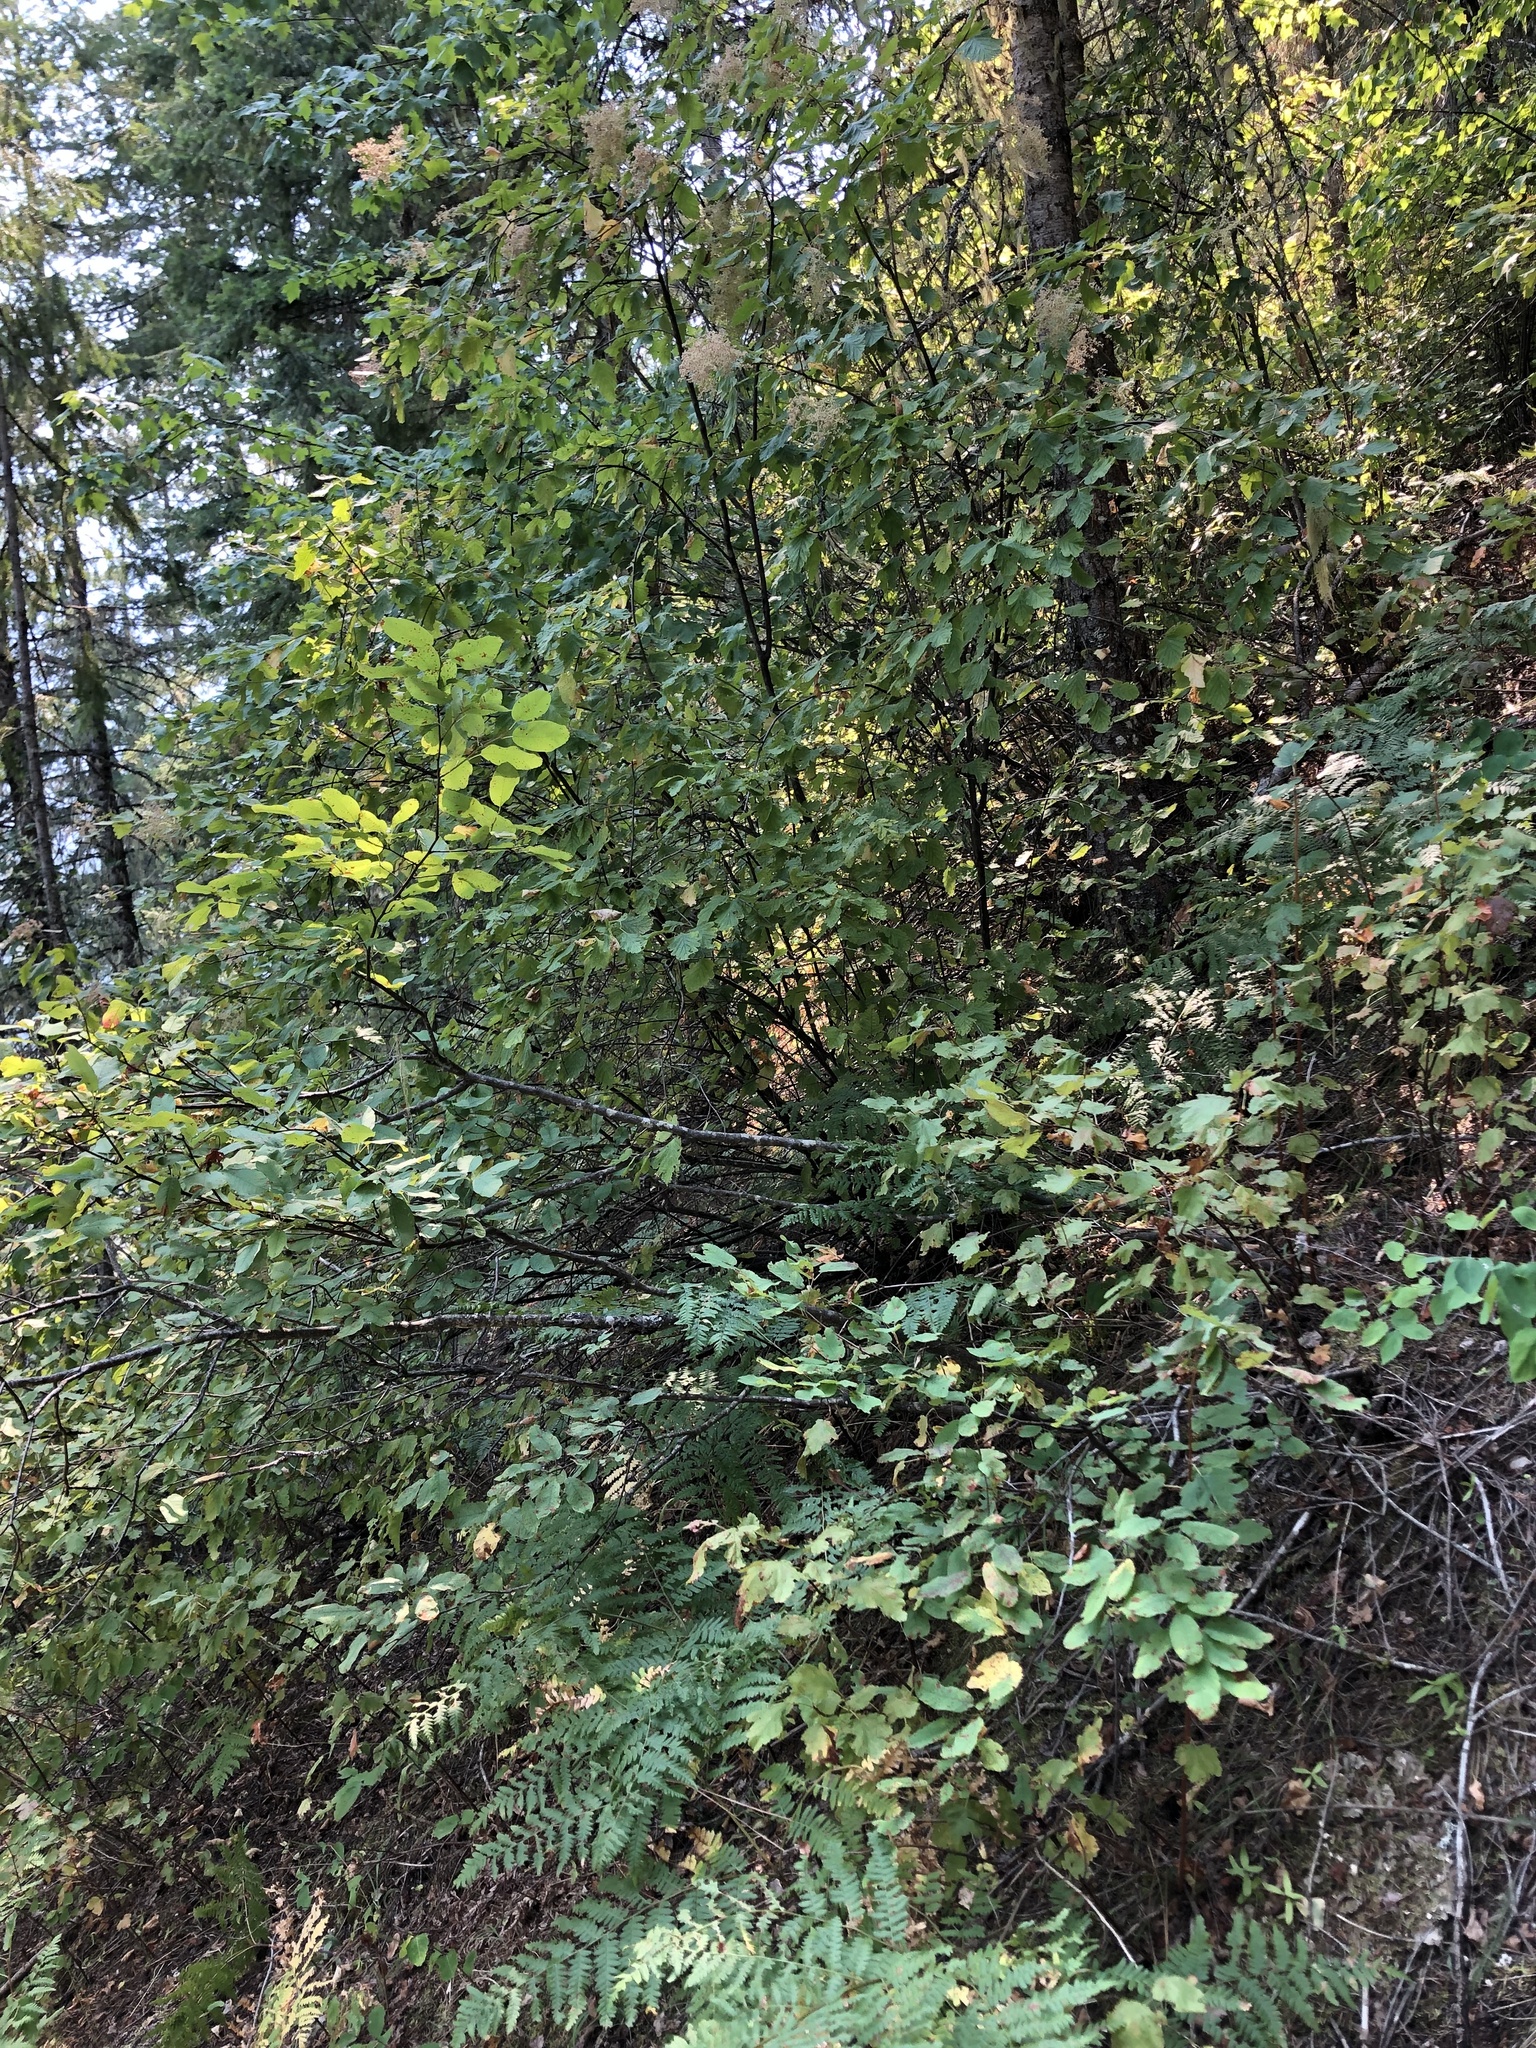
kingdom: Plantae
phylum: Tracheophyta
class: Polypodiopsida
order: Polypodiales
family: Dennstaedtiaceae
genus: Pteridium
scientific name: Pteridium aquilinum
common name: Bracken
